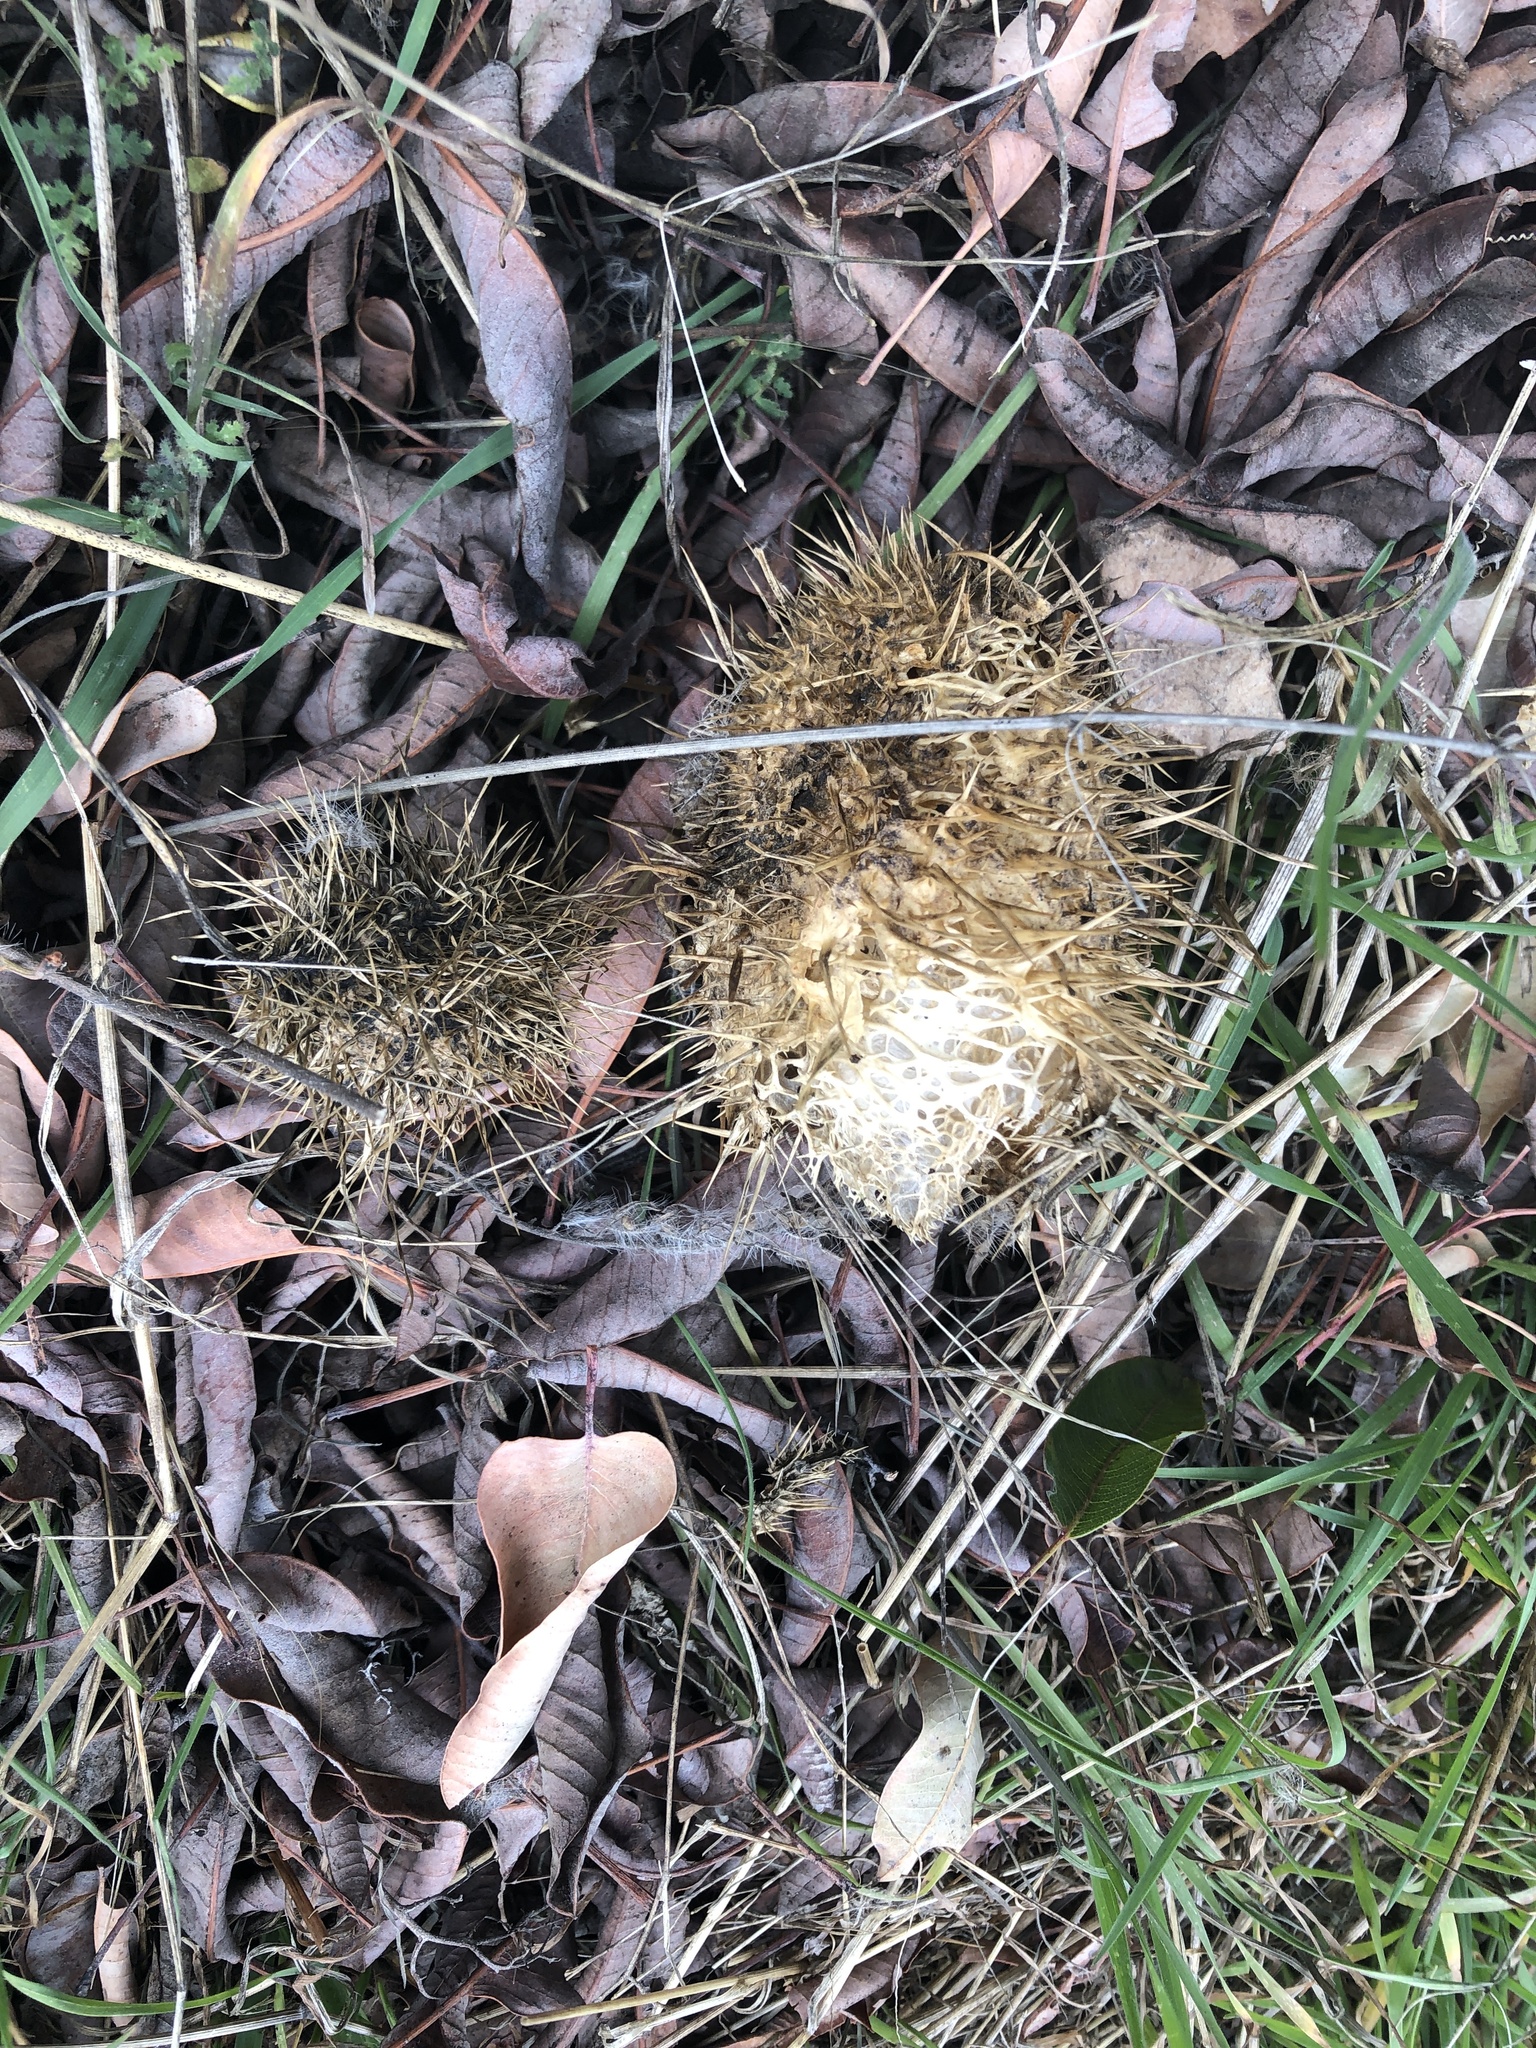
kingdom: Plantae
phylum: Tracheophyta
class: Magnoliopsida
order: Cucurbitales
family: Cucurbitaceae
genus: Marah
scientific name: Marah macrocarpa
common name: Cucamonga manroot
